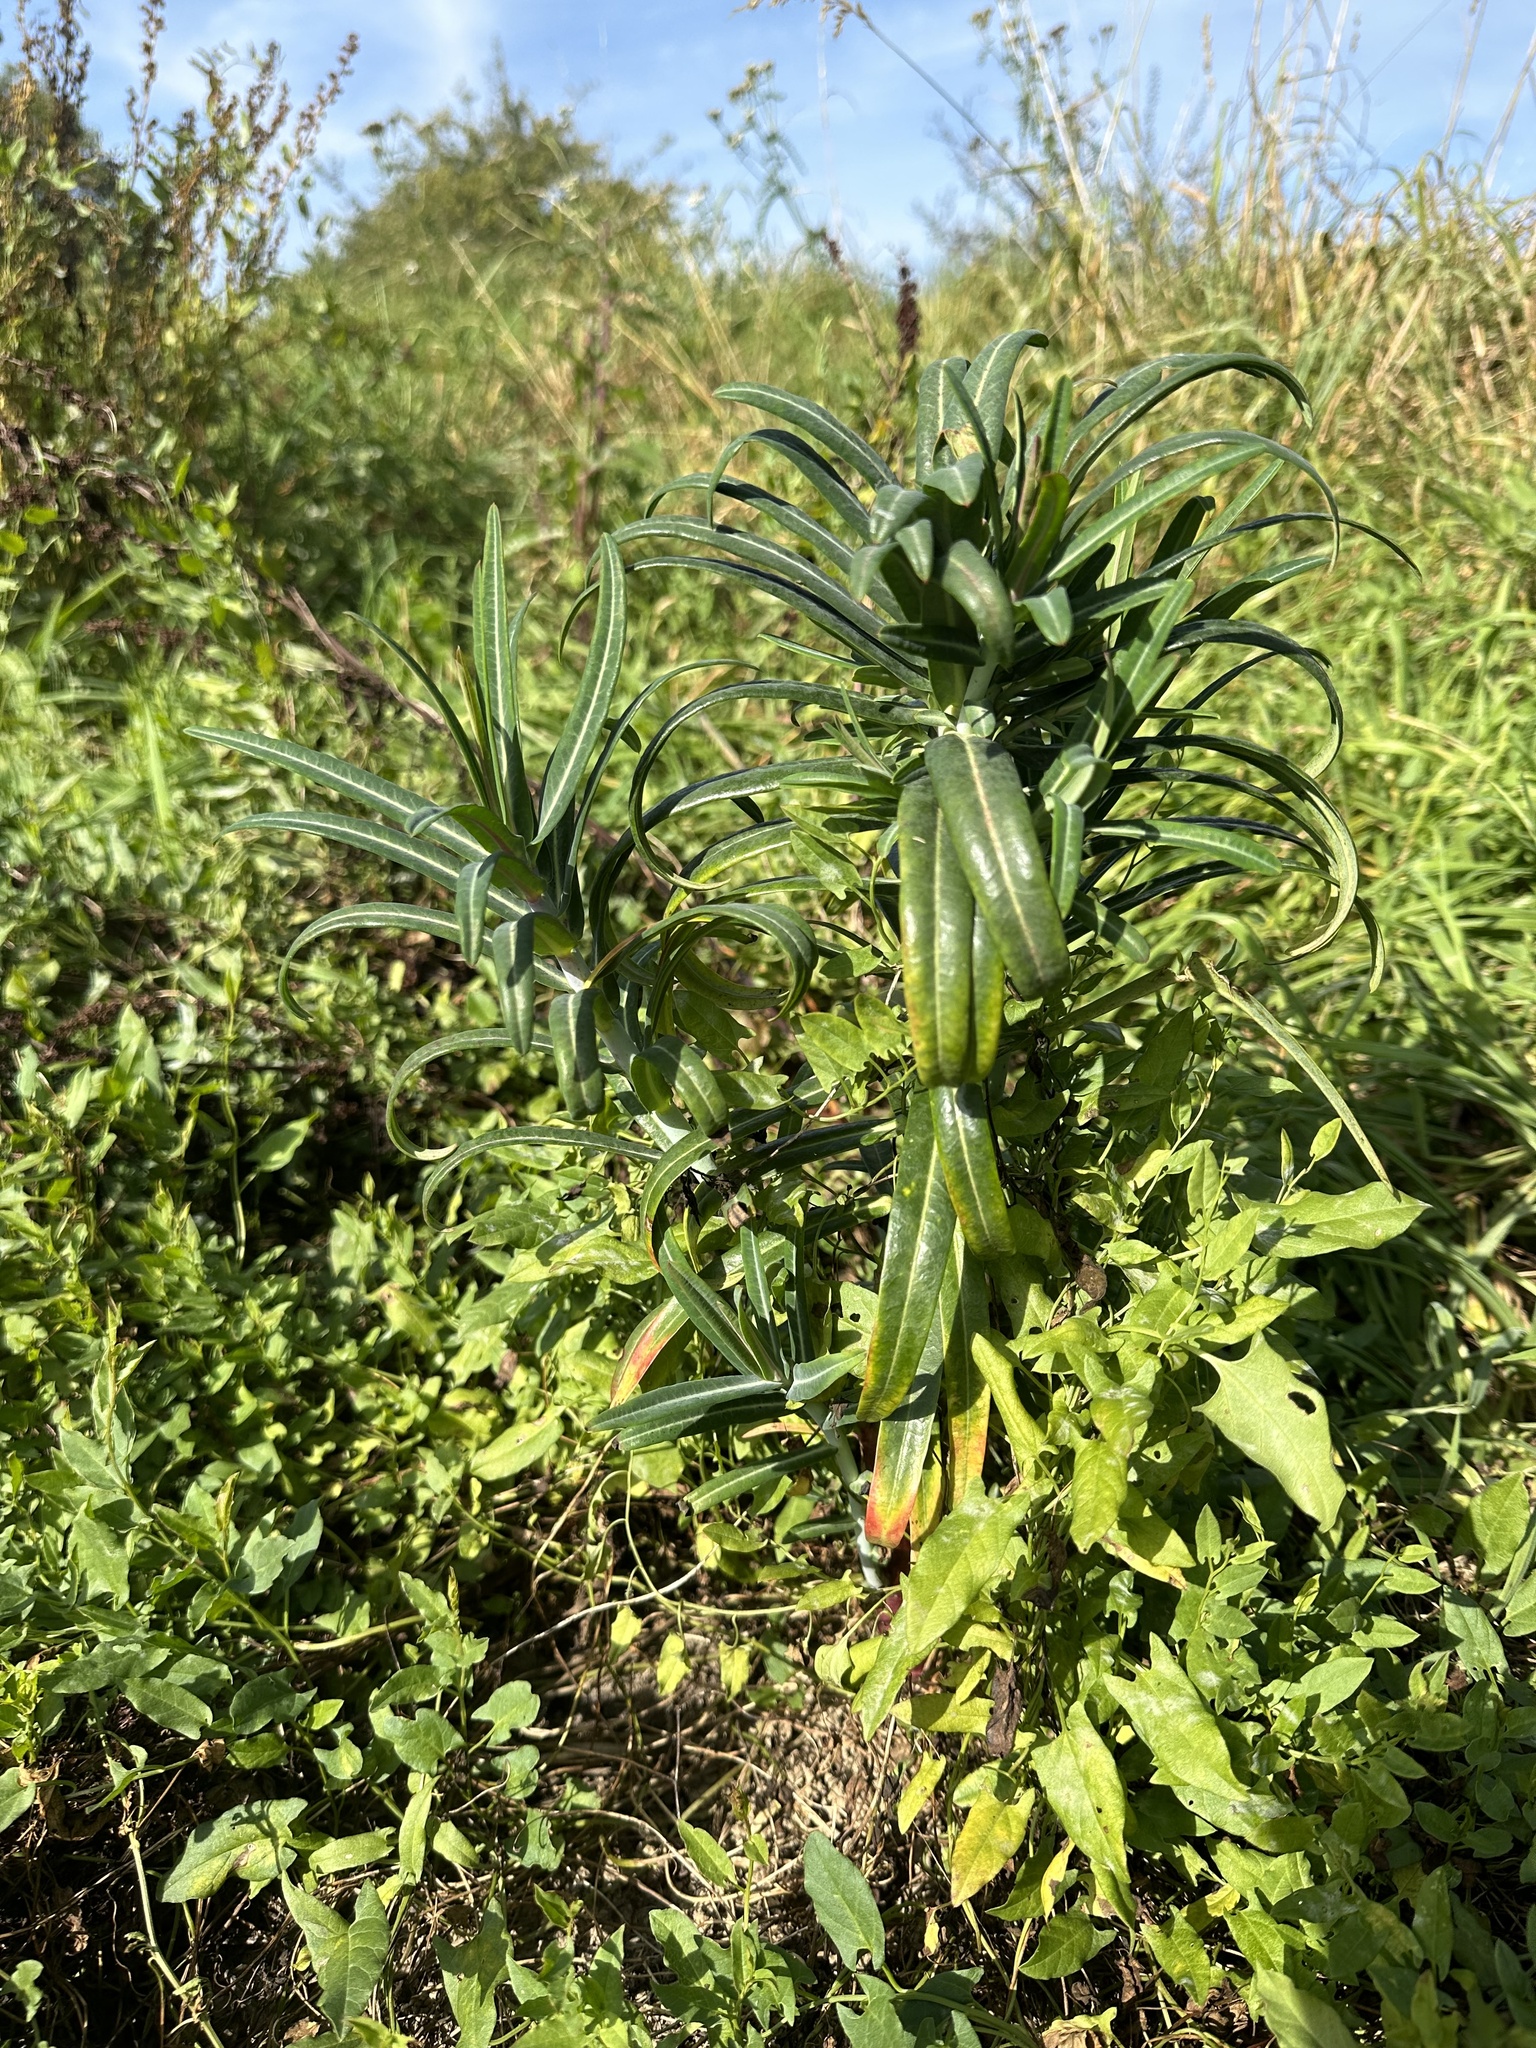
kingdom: Plantae
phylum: Tracheophyta
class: Magnoliopsida
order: Malpighiales
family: Euphorbiaceae
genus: Euphorbia
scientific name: Euphorbia lathyris
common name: Caper spurge
